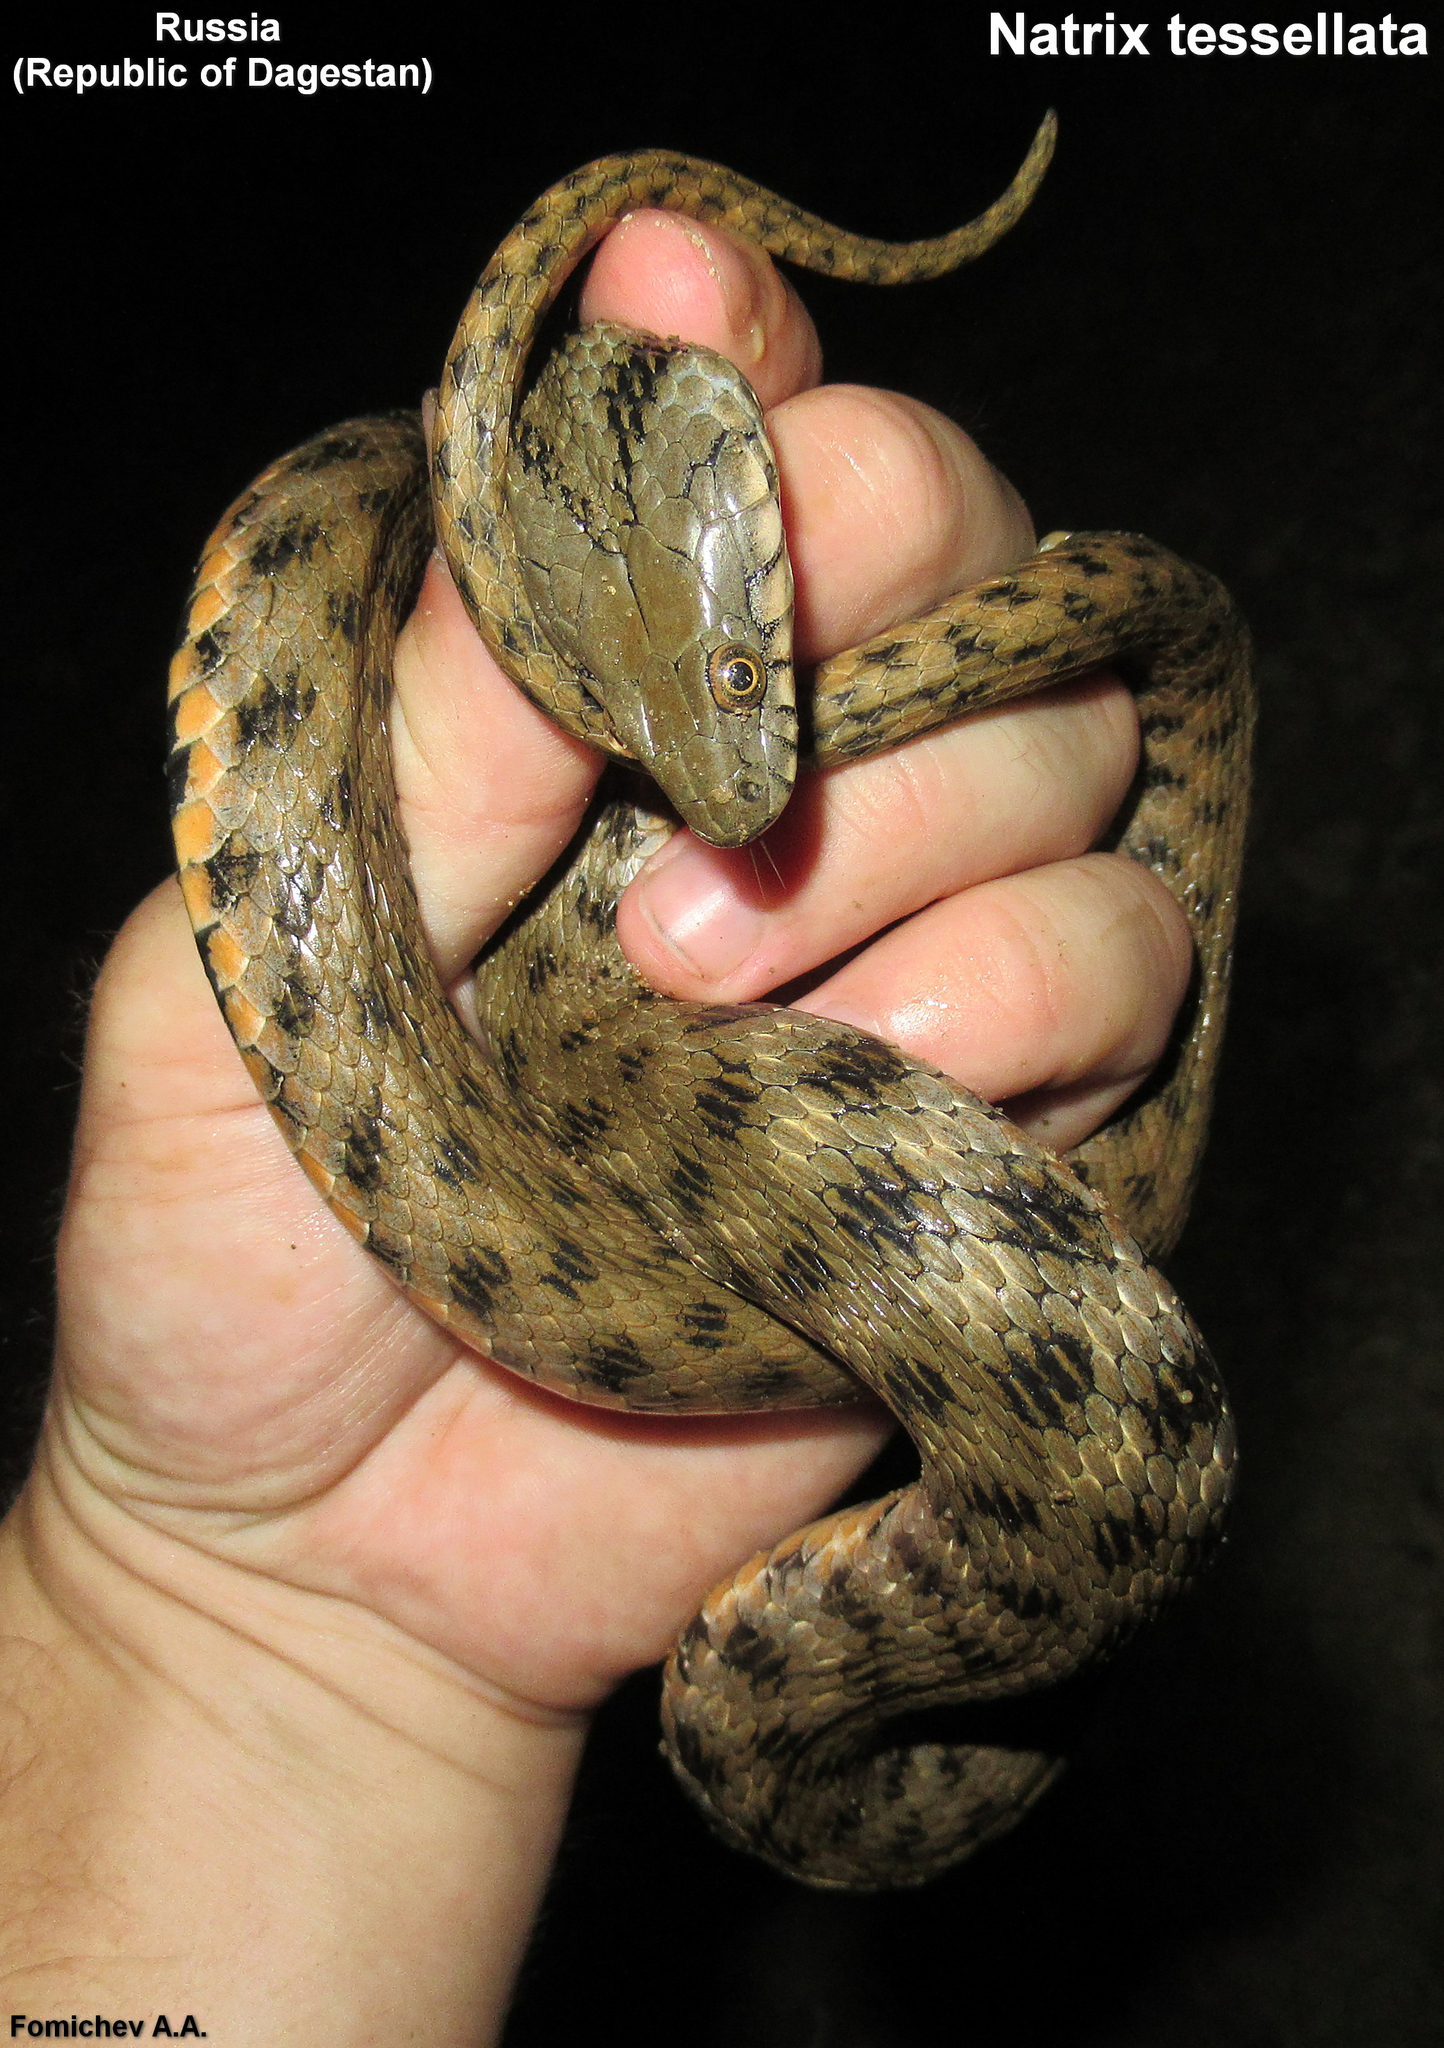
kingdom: Animalia
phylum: Chordata
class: Squamata
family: Colubridae
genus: Natrix
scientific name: Natrix tessellata
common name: Dice snake
